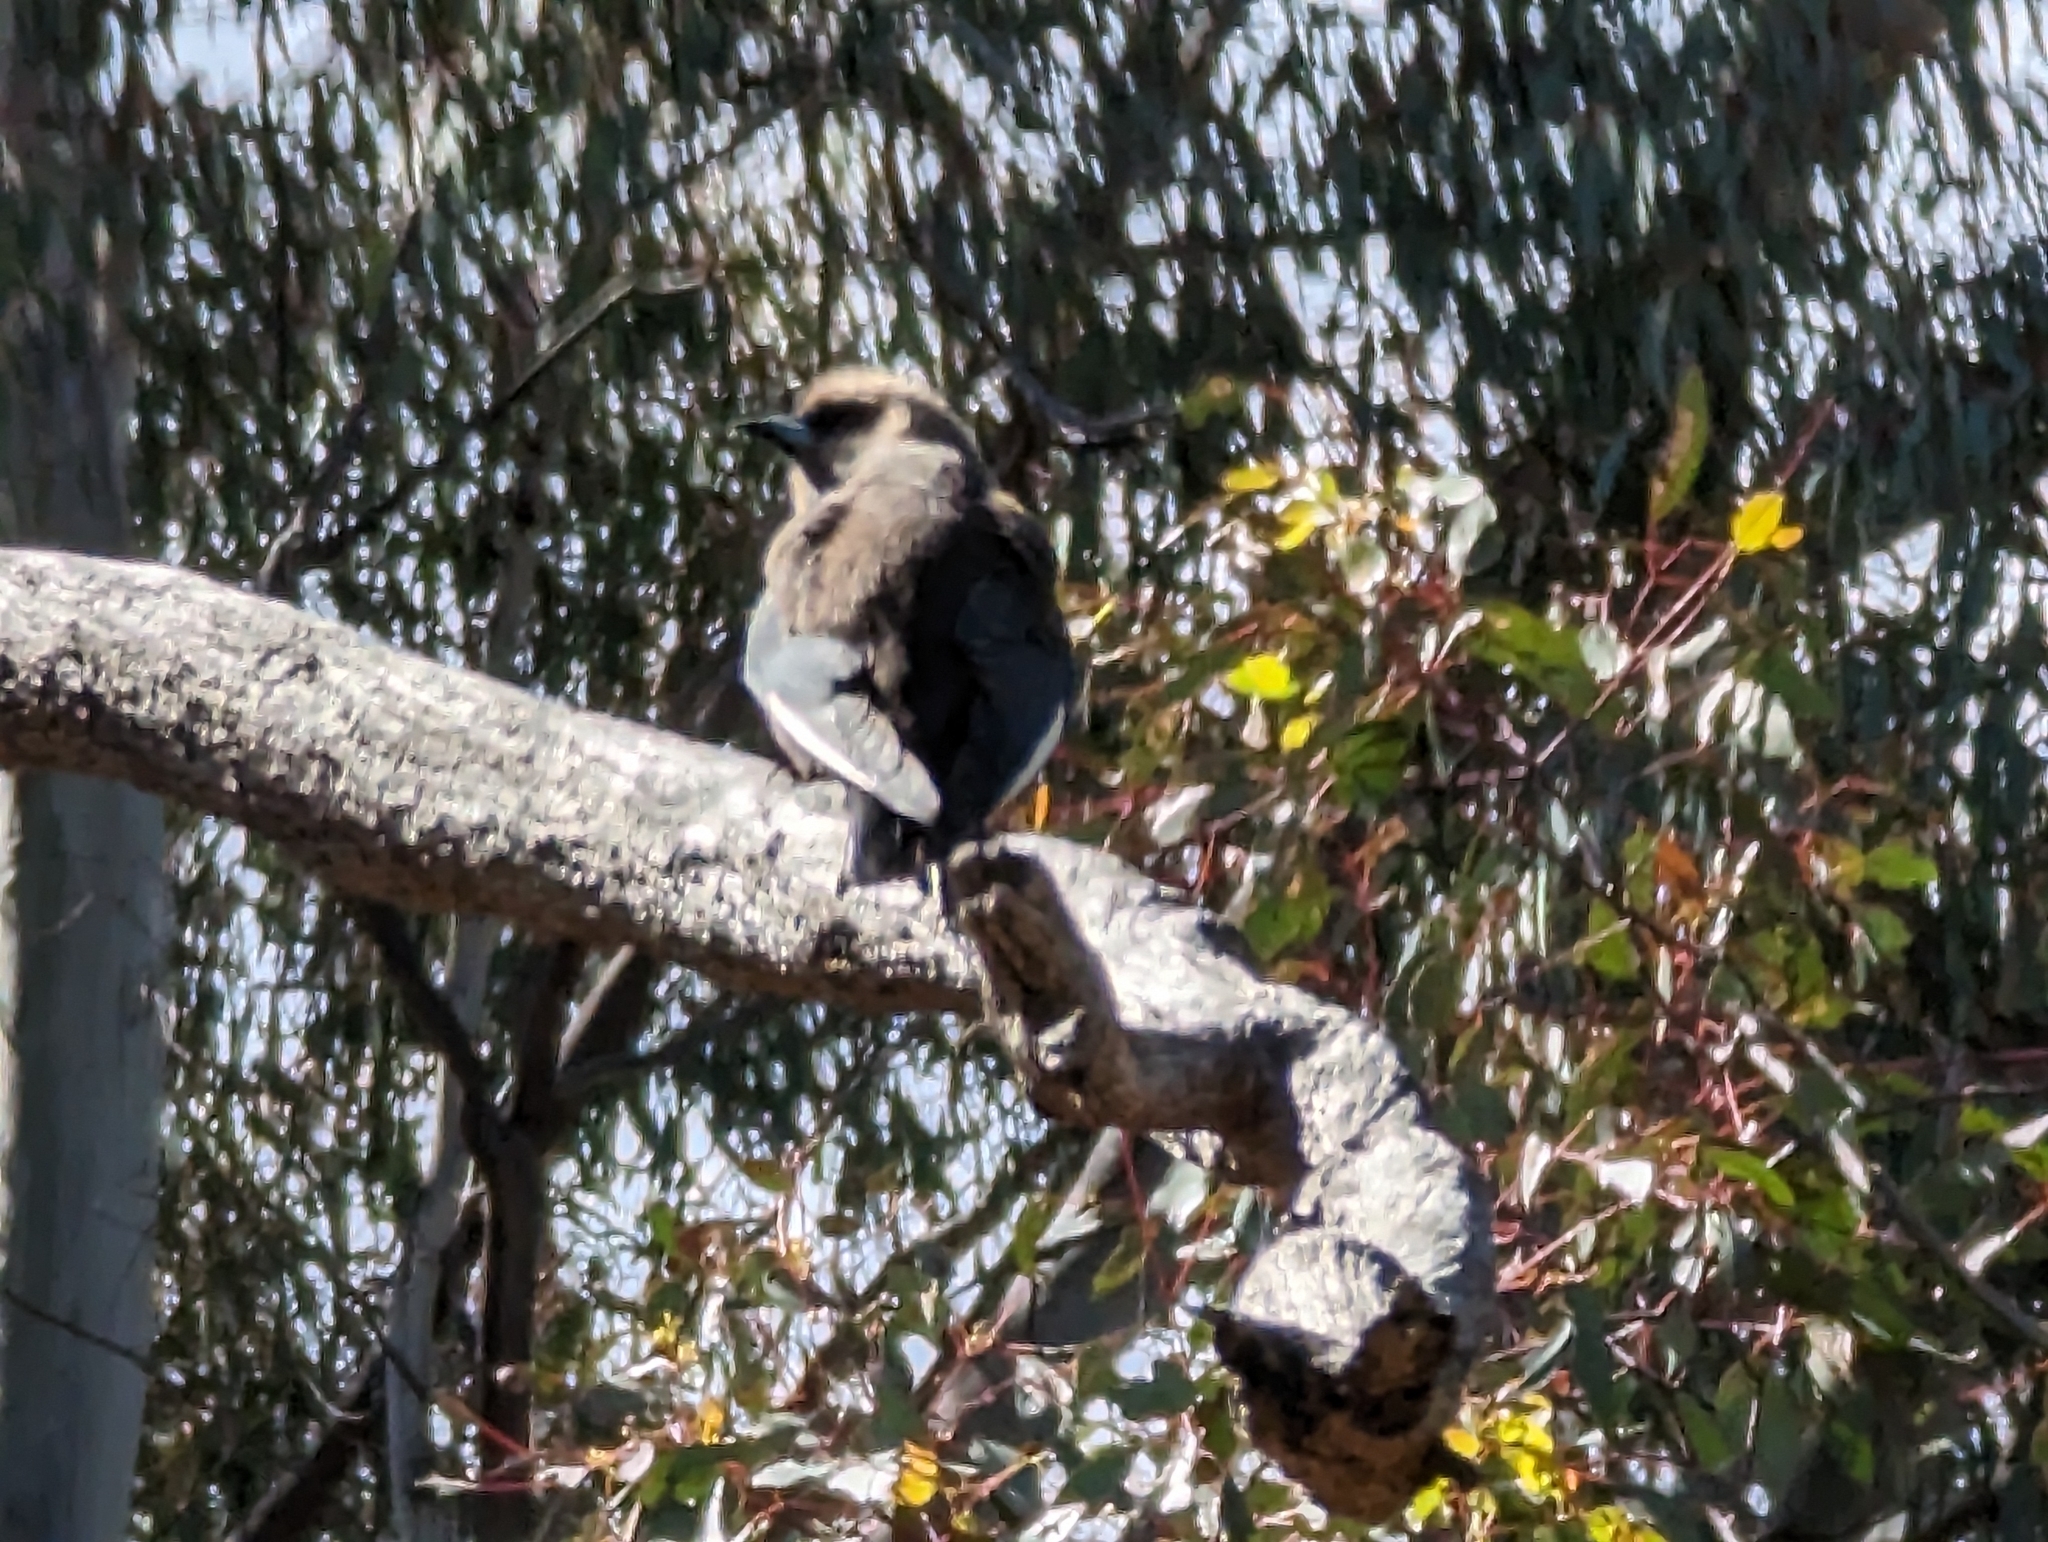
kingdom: Animalia
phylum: Chordata
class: Aves
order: Passeriformes
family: Artamidae
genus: Artamus
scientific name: Artamus cyanopterus
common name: Dusky woodswallow
